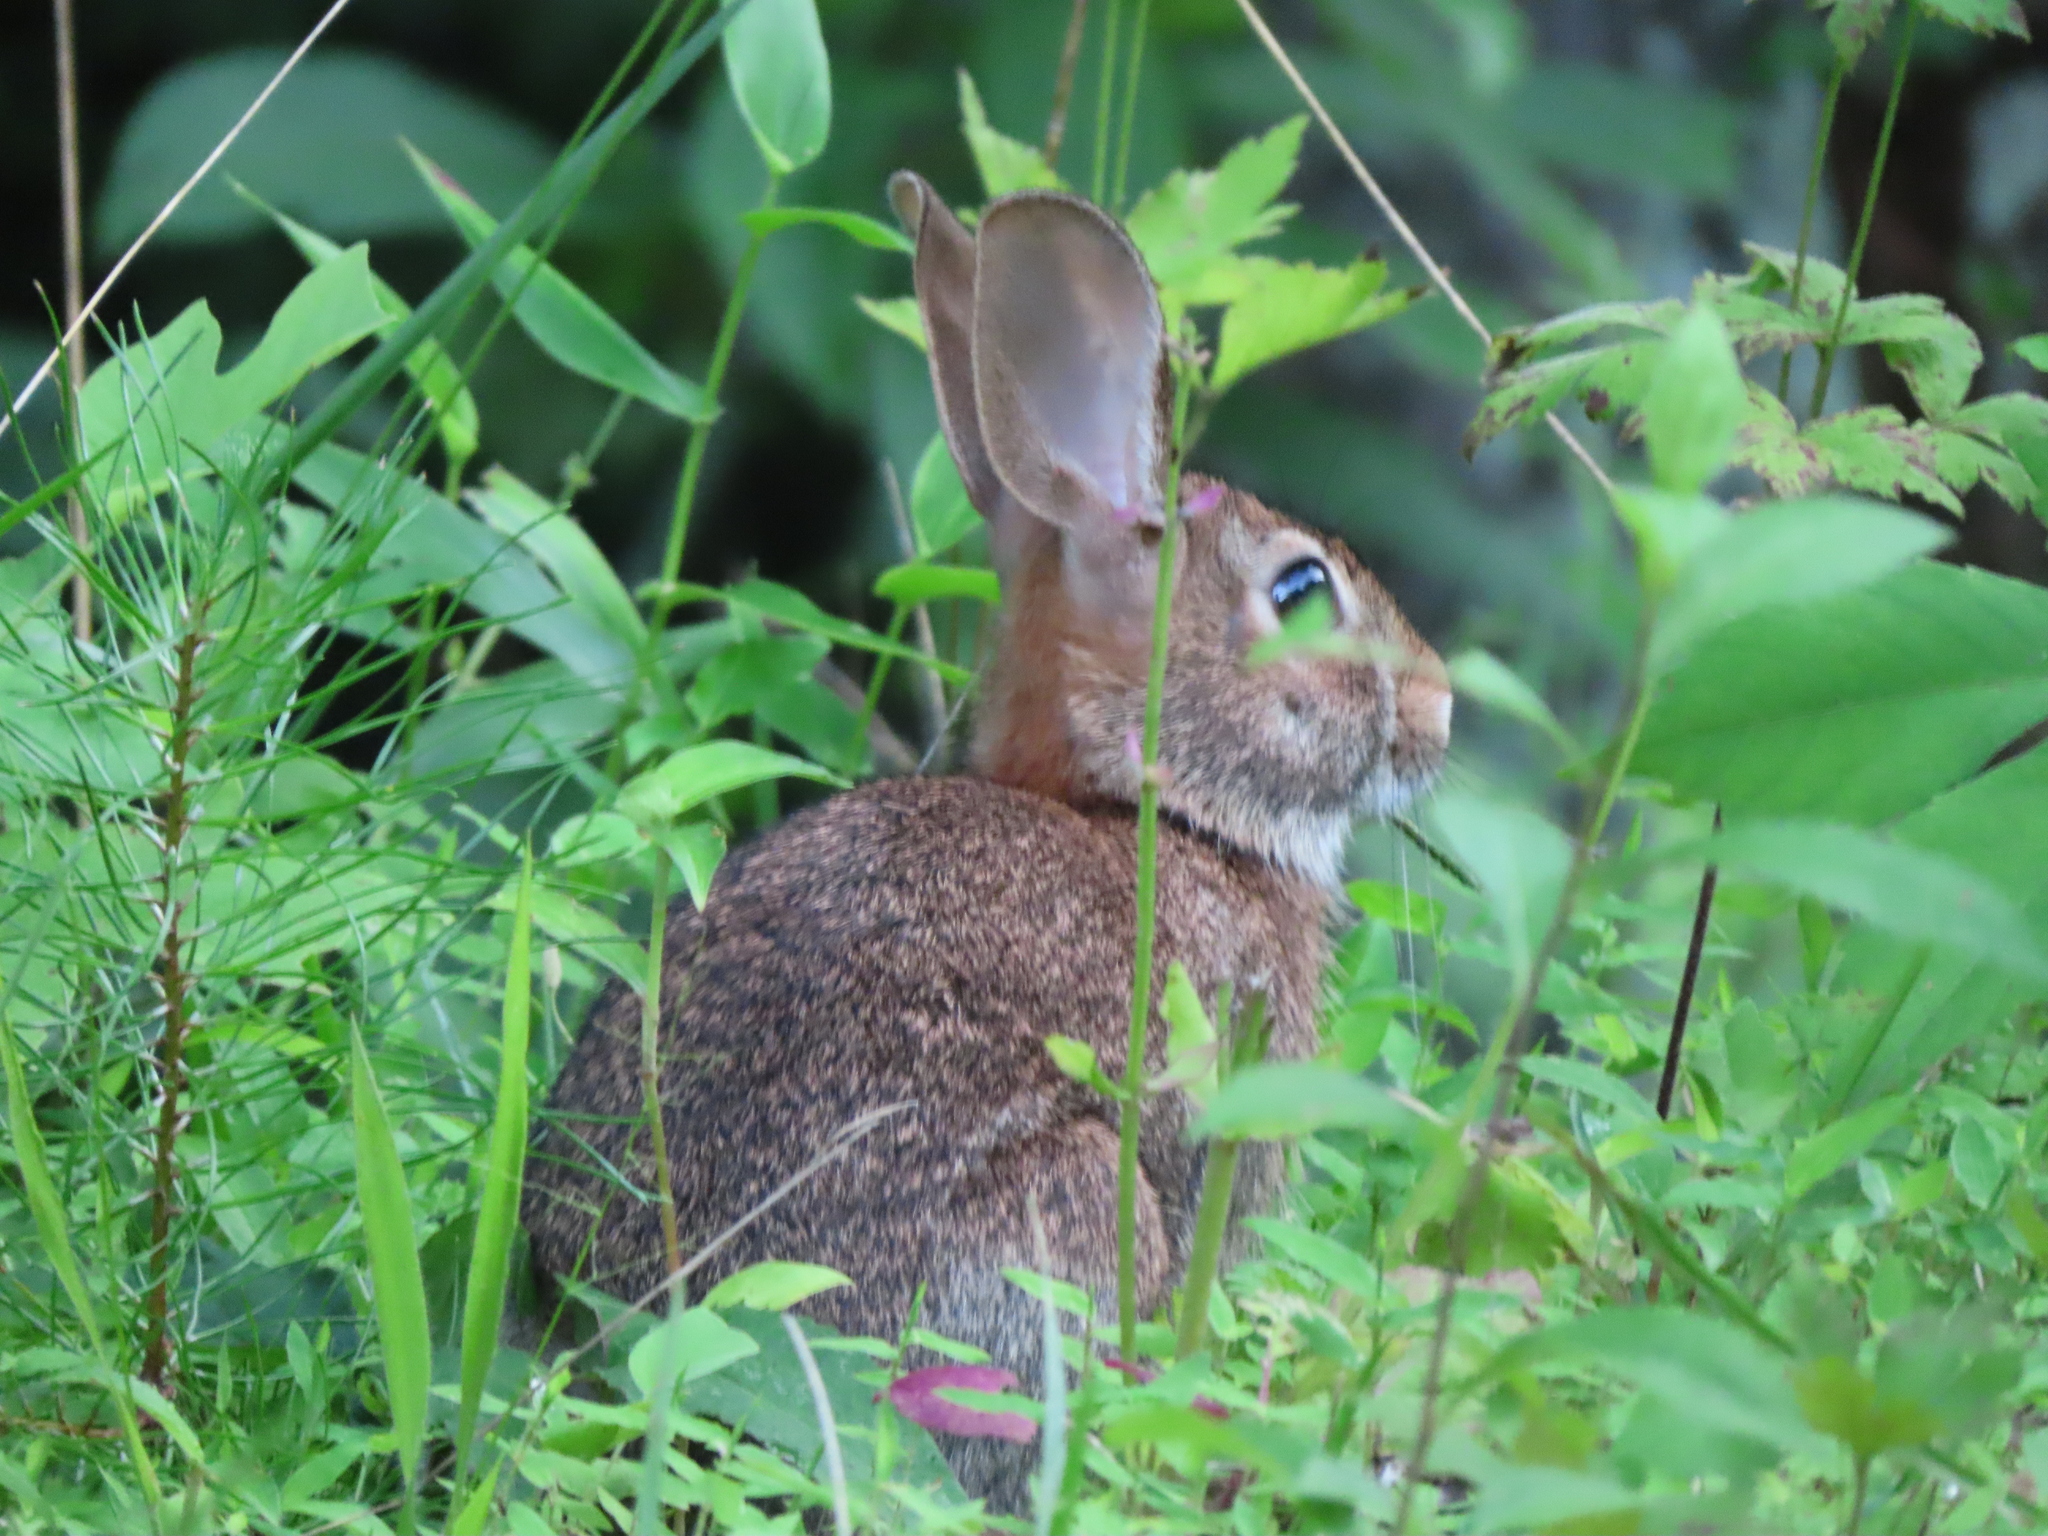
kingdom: Animalia
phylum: Chordata
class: Mammalia
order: Lagomorpha
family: Leporidae
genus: Sylvilagus
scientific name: Sylvilagus floridanus
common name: Eastern cottontail
